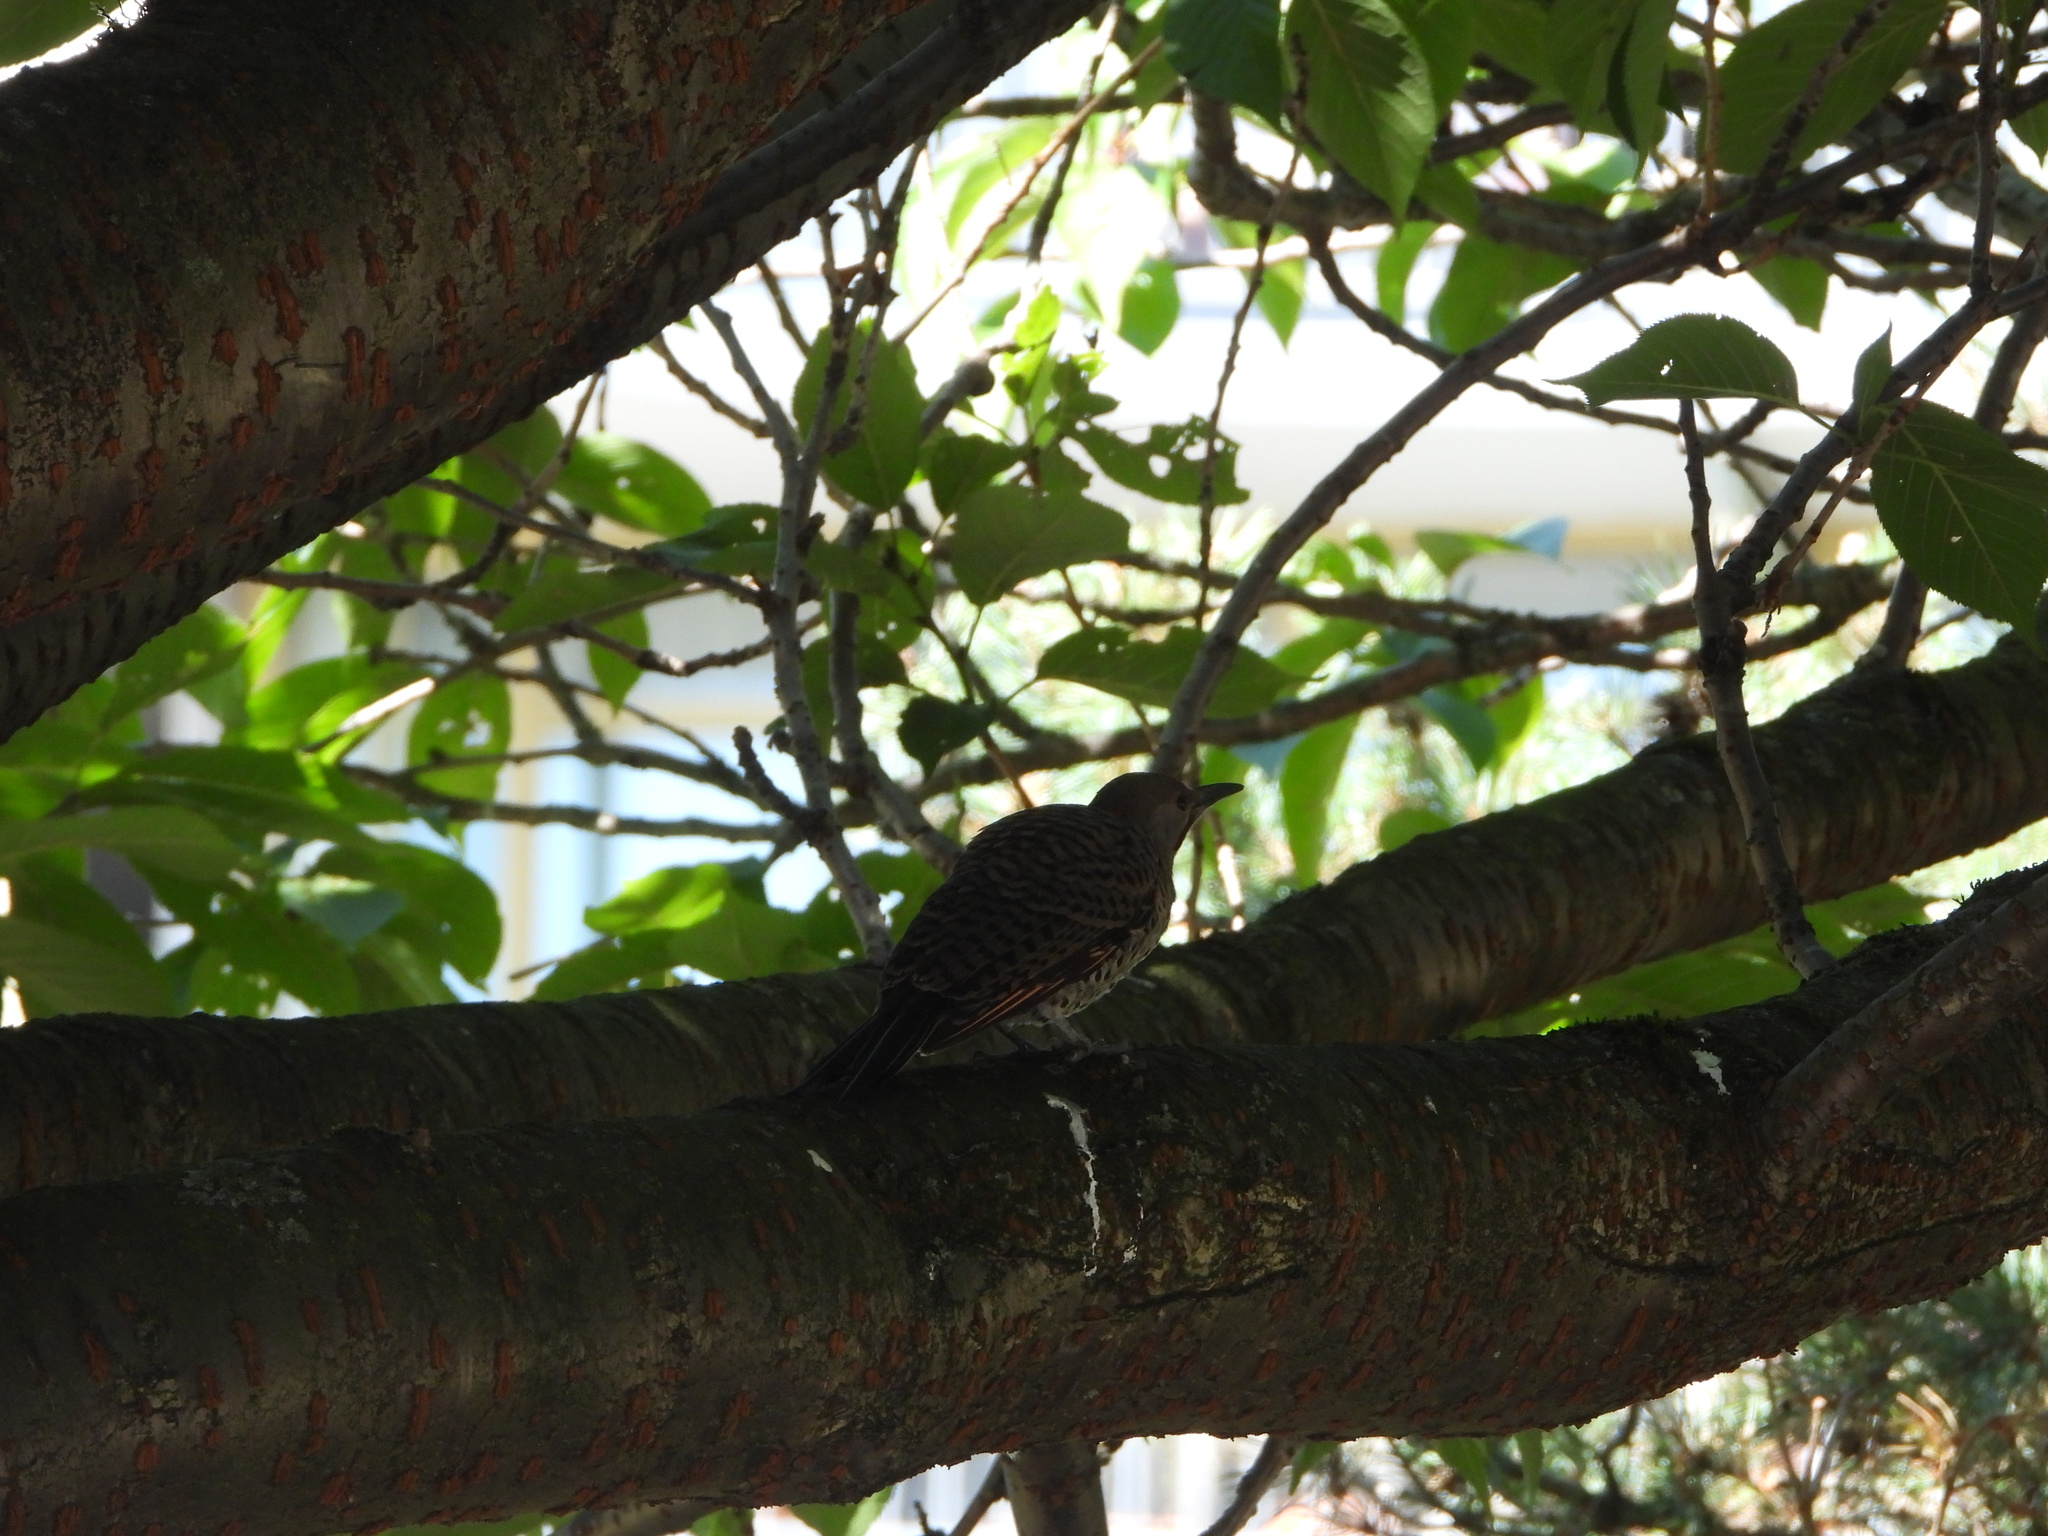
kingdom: Animalia
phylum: Chordata
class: Aves
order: Piciformes
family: Picidae
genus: Colaptes
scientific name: Colaptes auratus
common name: Northern flicker
